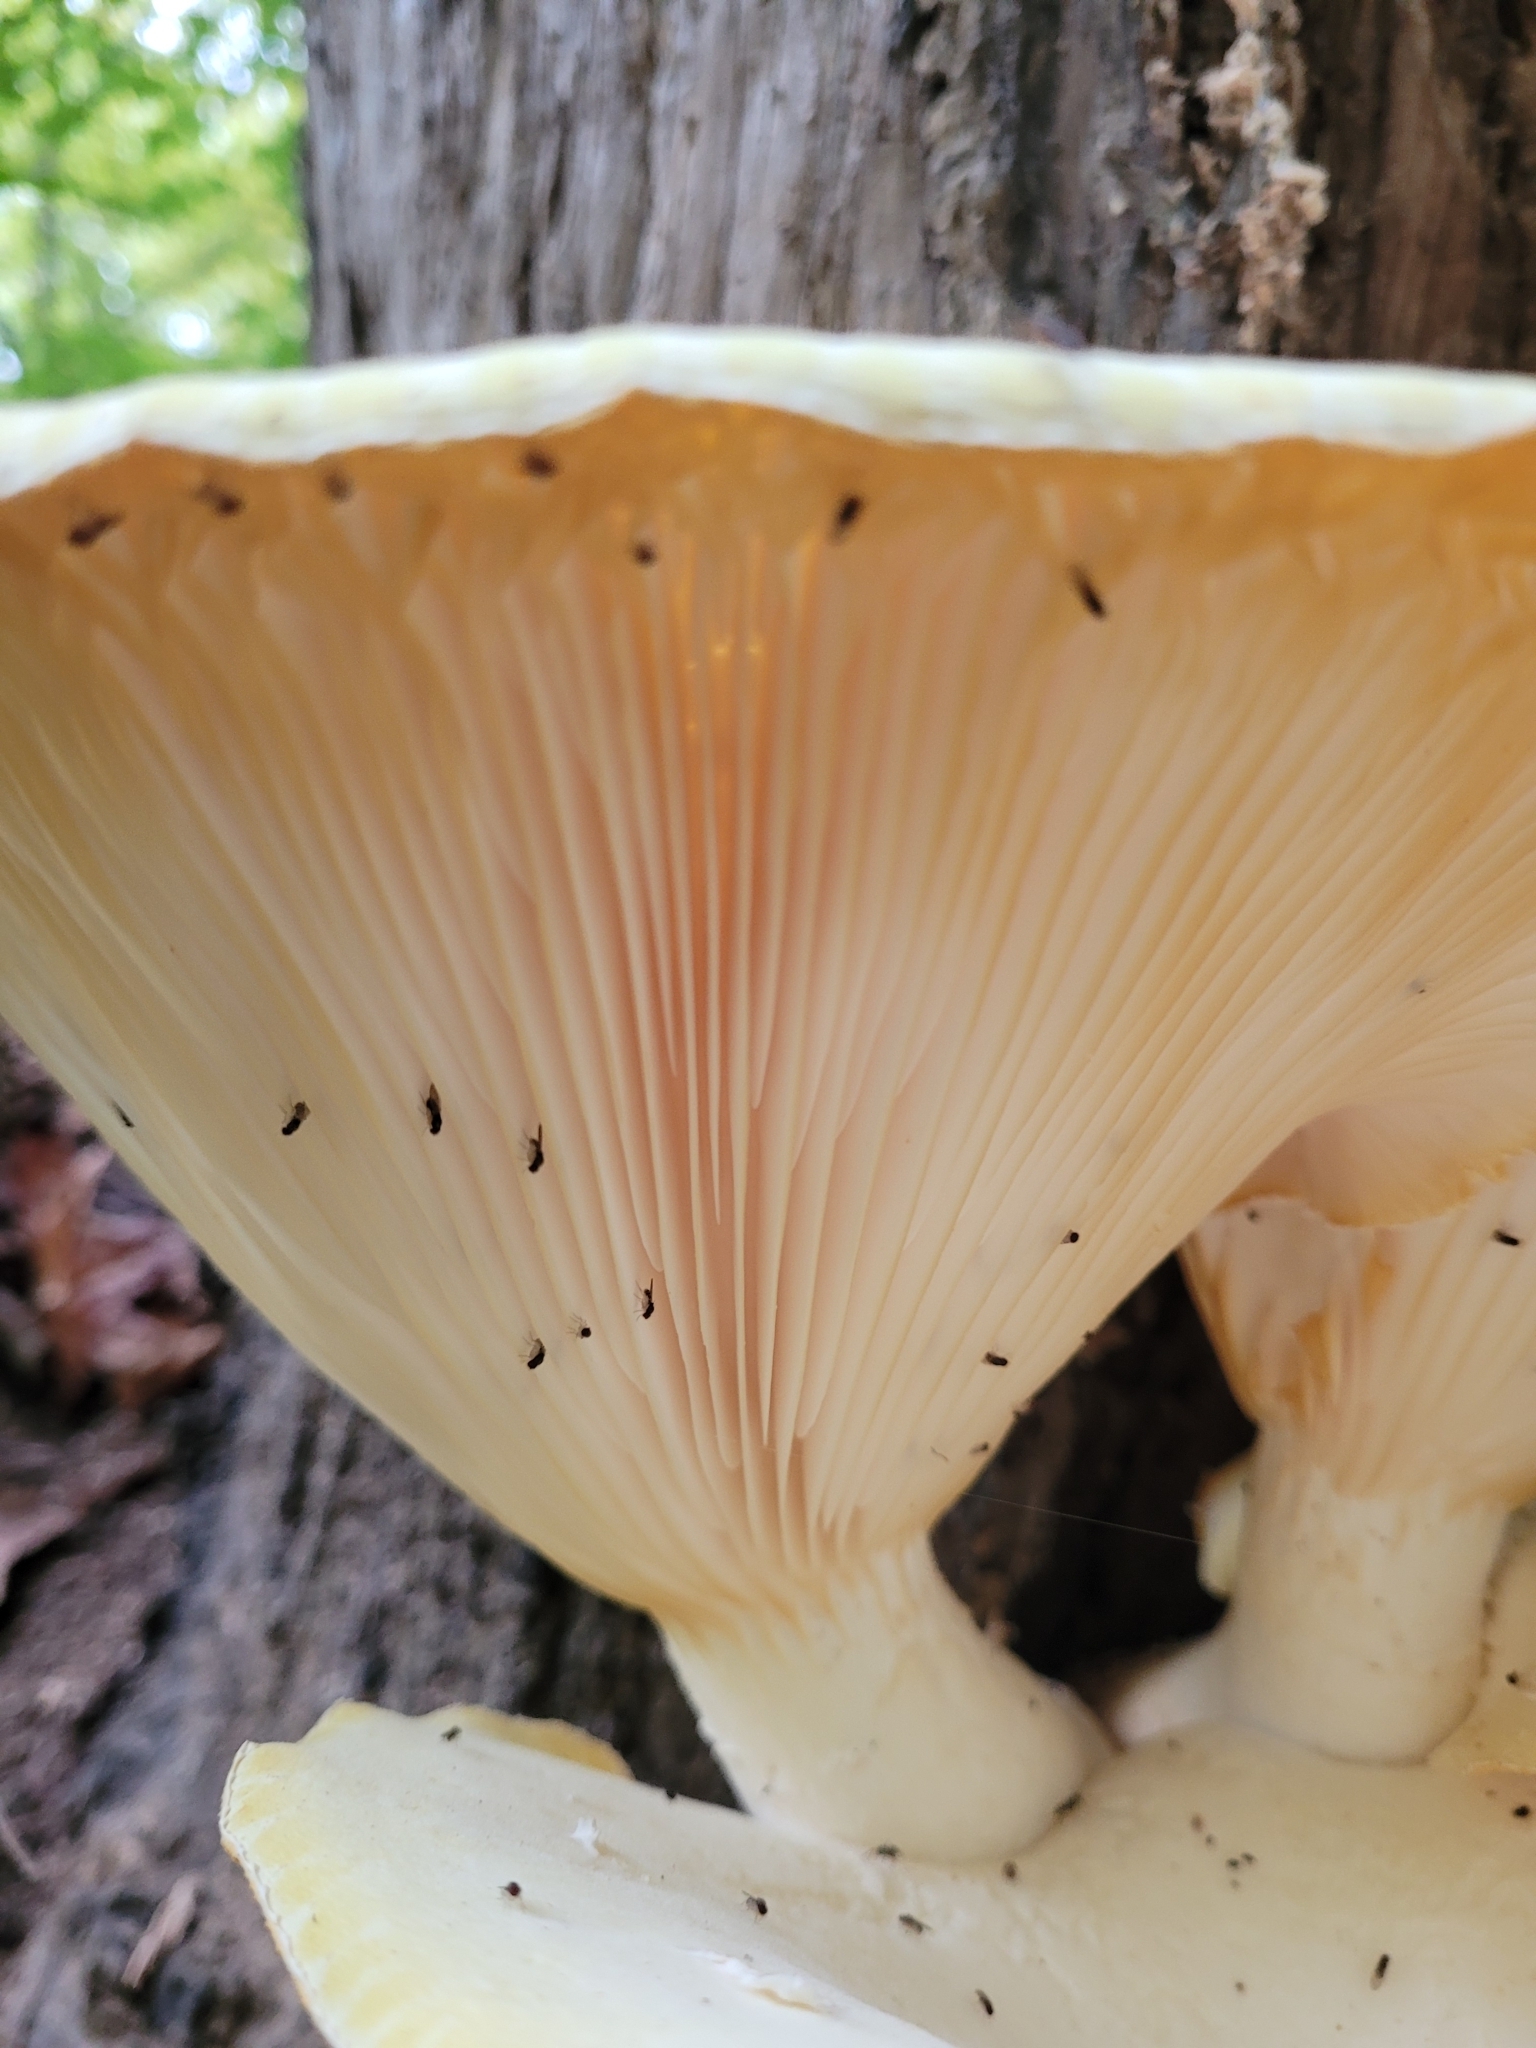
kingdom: Fungi
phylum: Basidiomycota
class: Agaricomycetes
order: Polyporales
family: Polyporaceae
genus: Lentinus
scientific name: Lentinus levis
